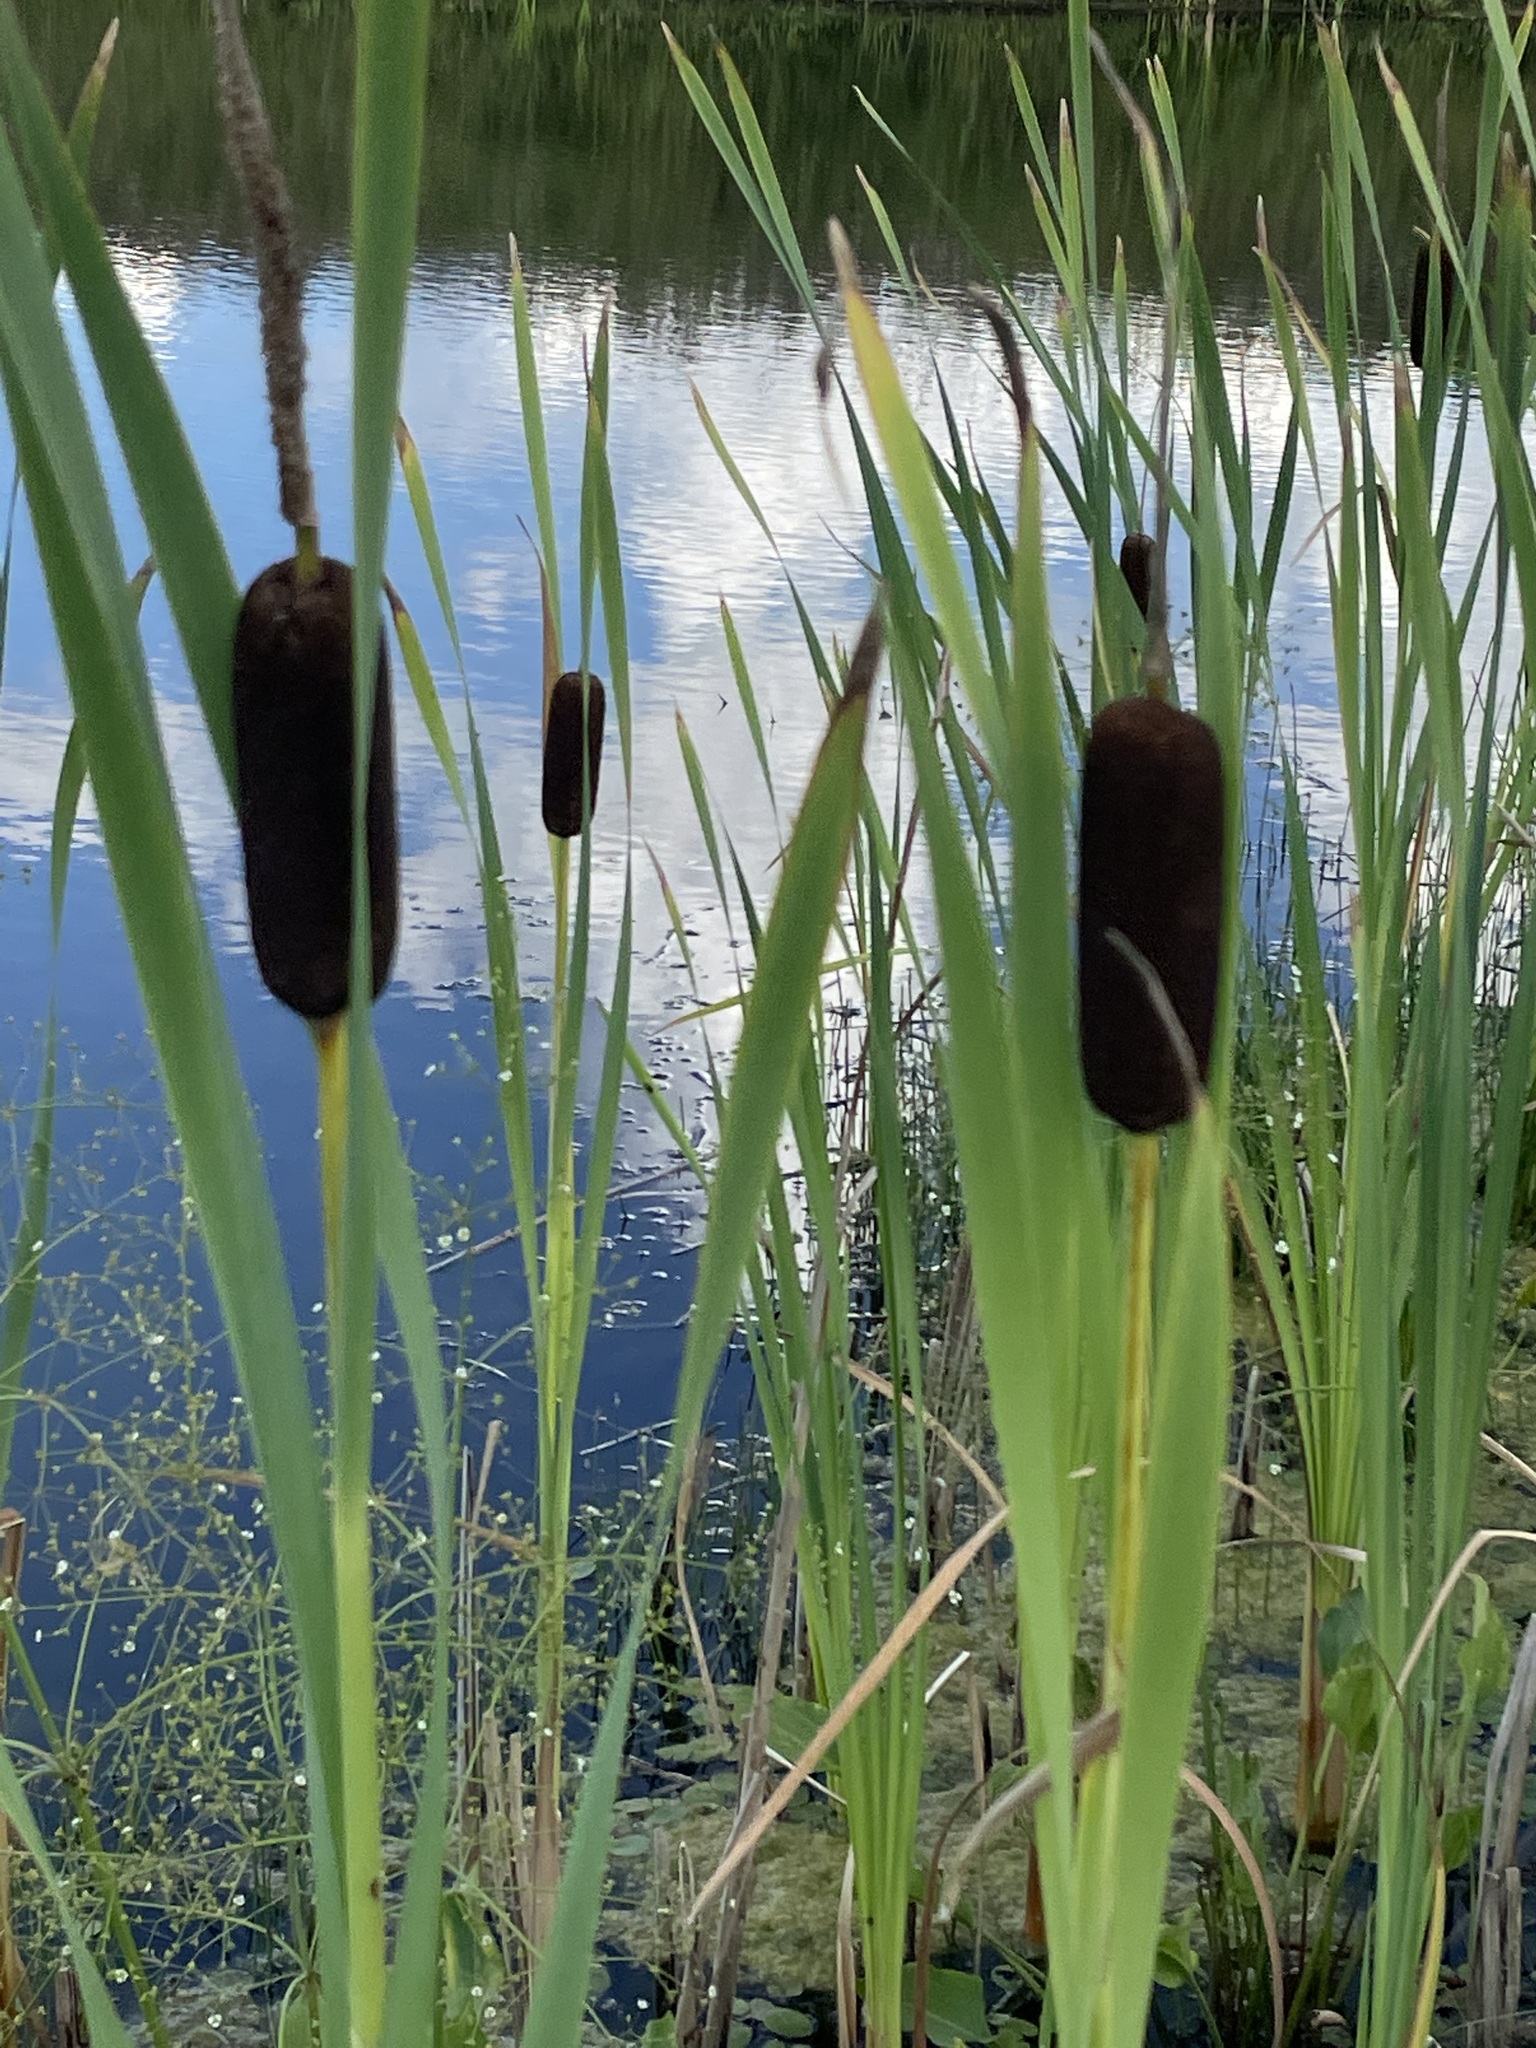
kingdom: Plantae
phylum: Tracheophyta
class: Liliopsida
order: Poales
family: Typhaceae
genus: Typha
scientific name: Typha latifolia
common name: Broadleaf cattail
